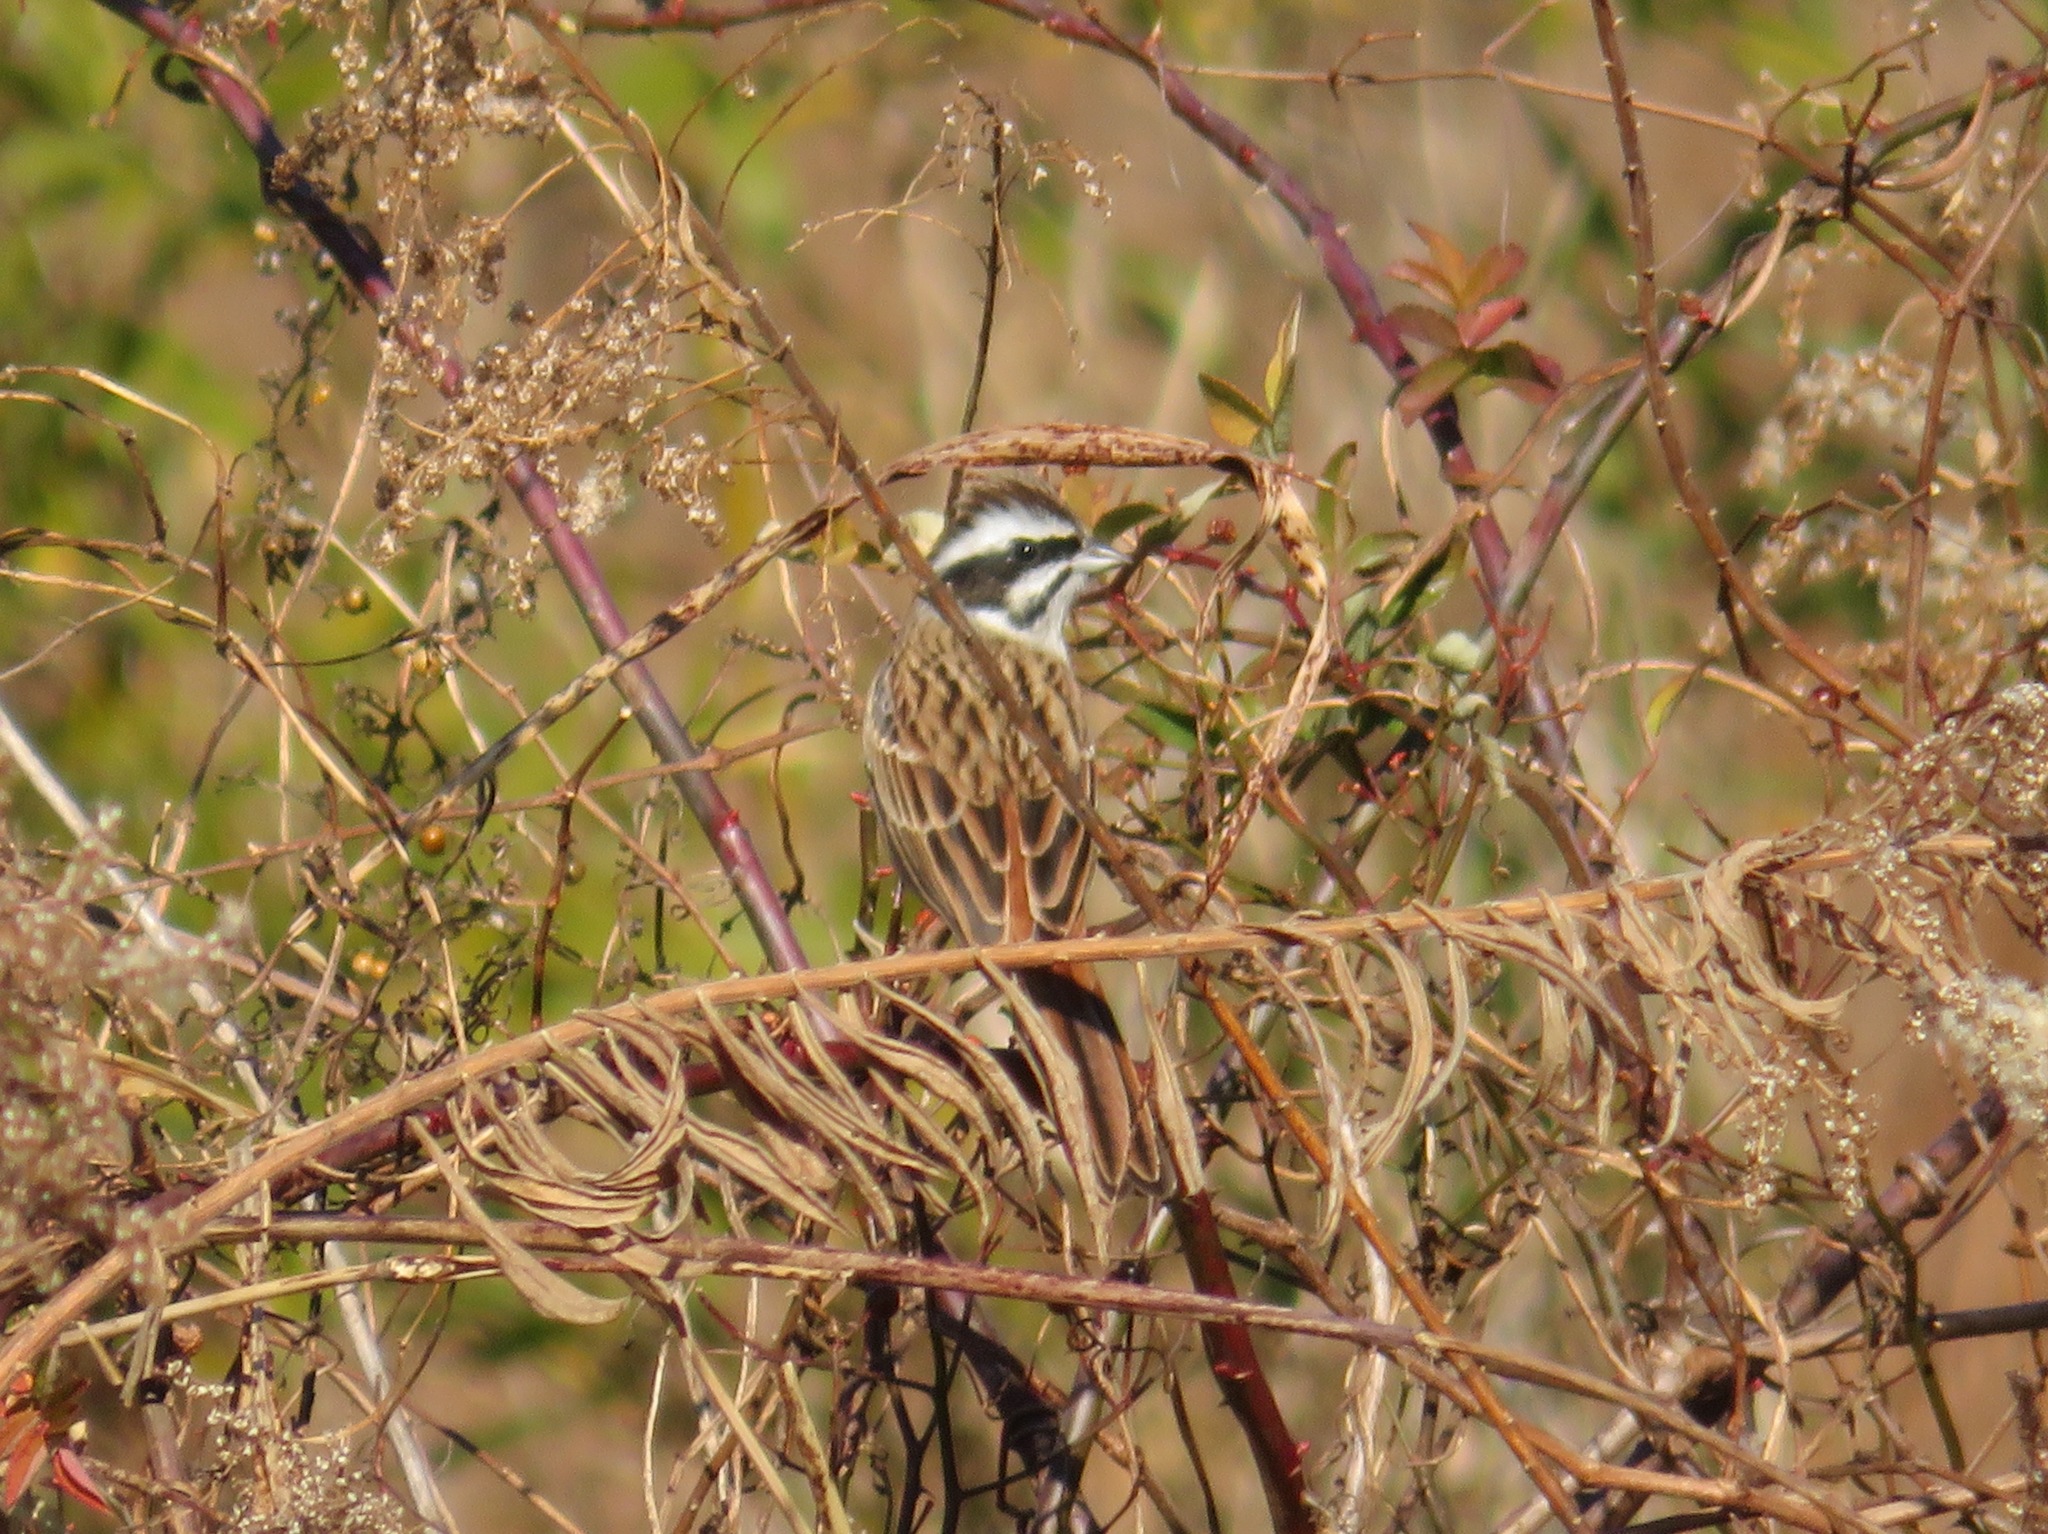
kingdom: Animalia
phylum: Chordata
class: Aves
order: Passeriformes
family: Emberizidae
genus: Emberiza
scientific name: Emberiza cioides
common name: Meadow bunting
